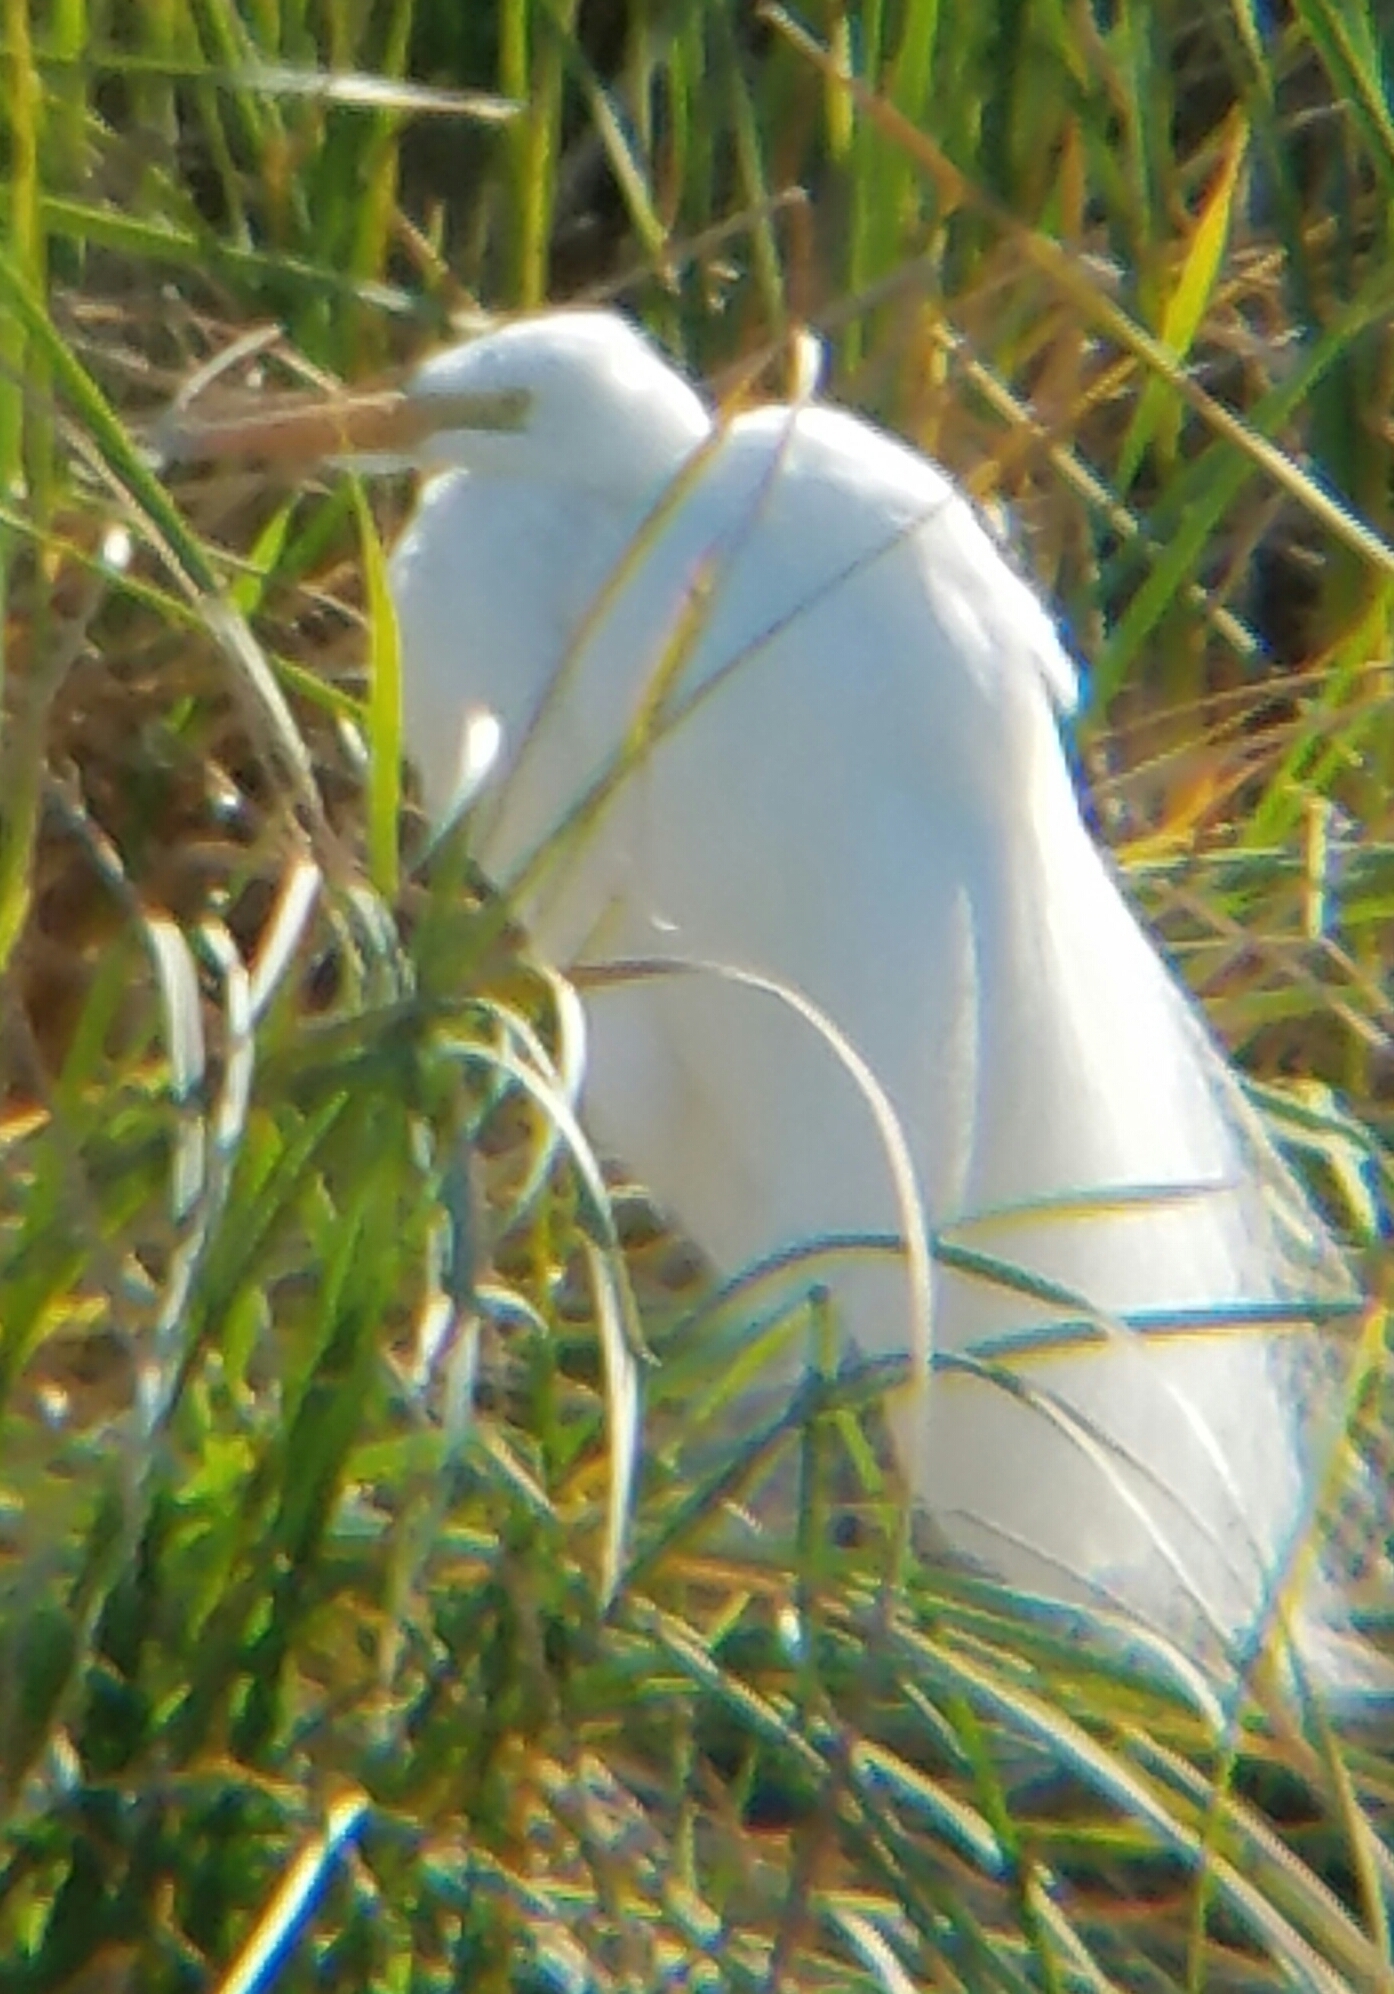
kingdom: Animalia
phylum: Chordata
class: Aves
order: Pelecaniformes
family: Ardeidae
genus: Ardea
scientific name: Ardea alba
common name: Great egret
